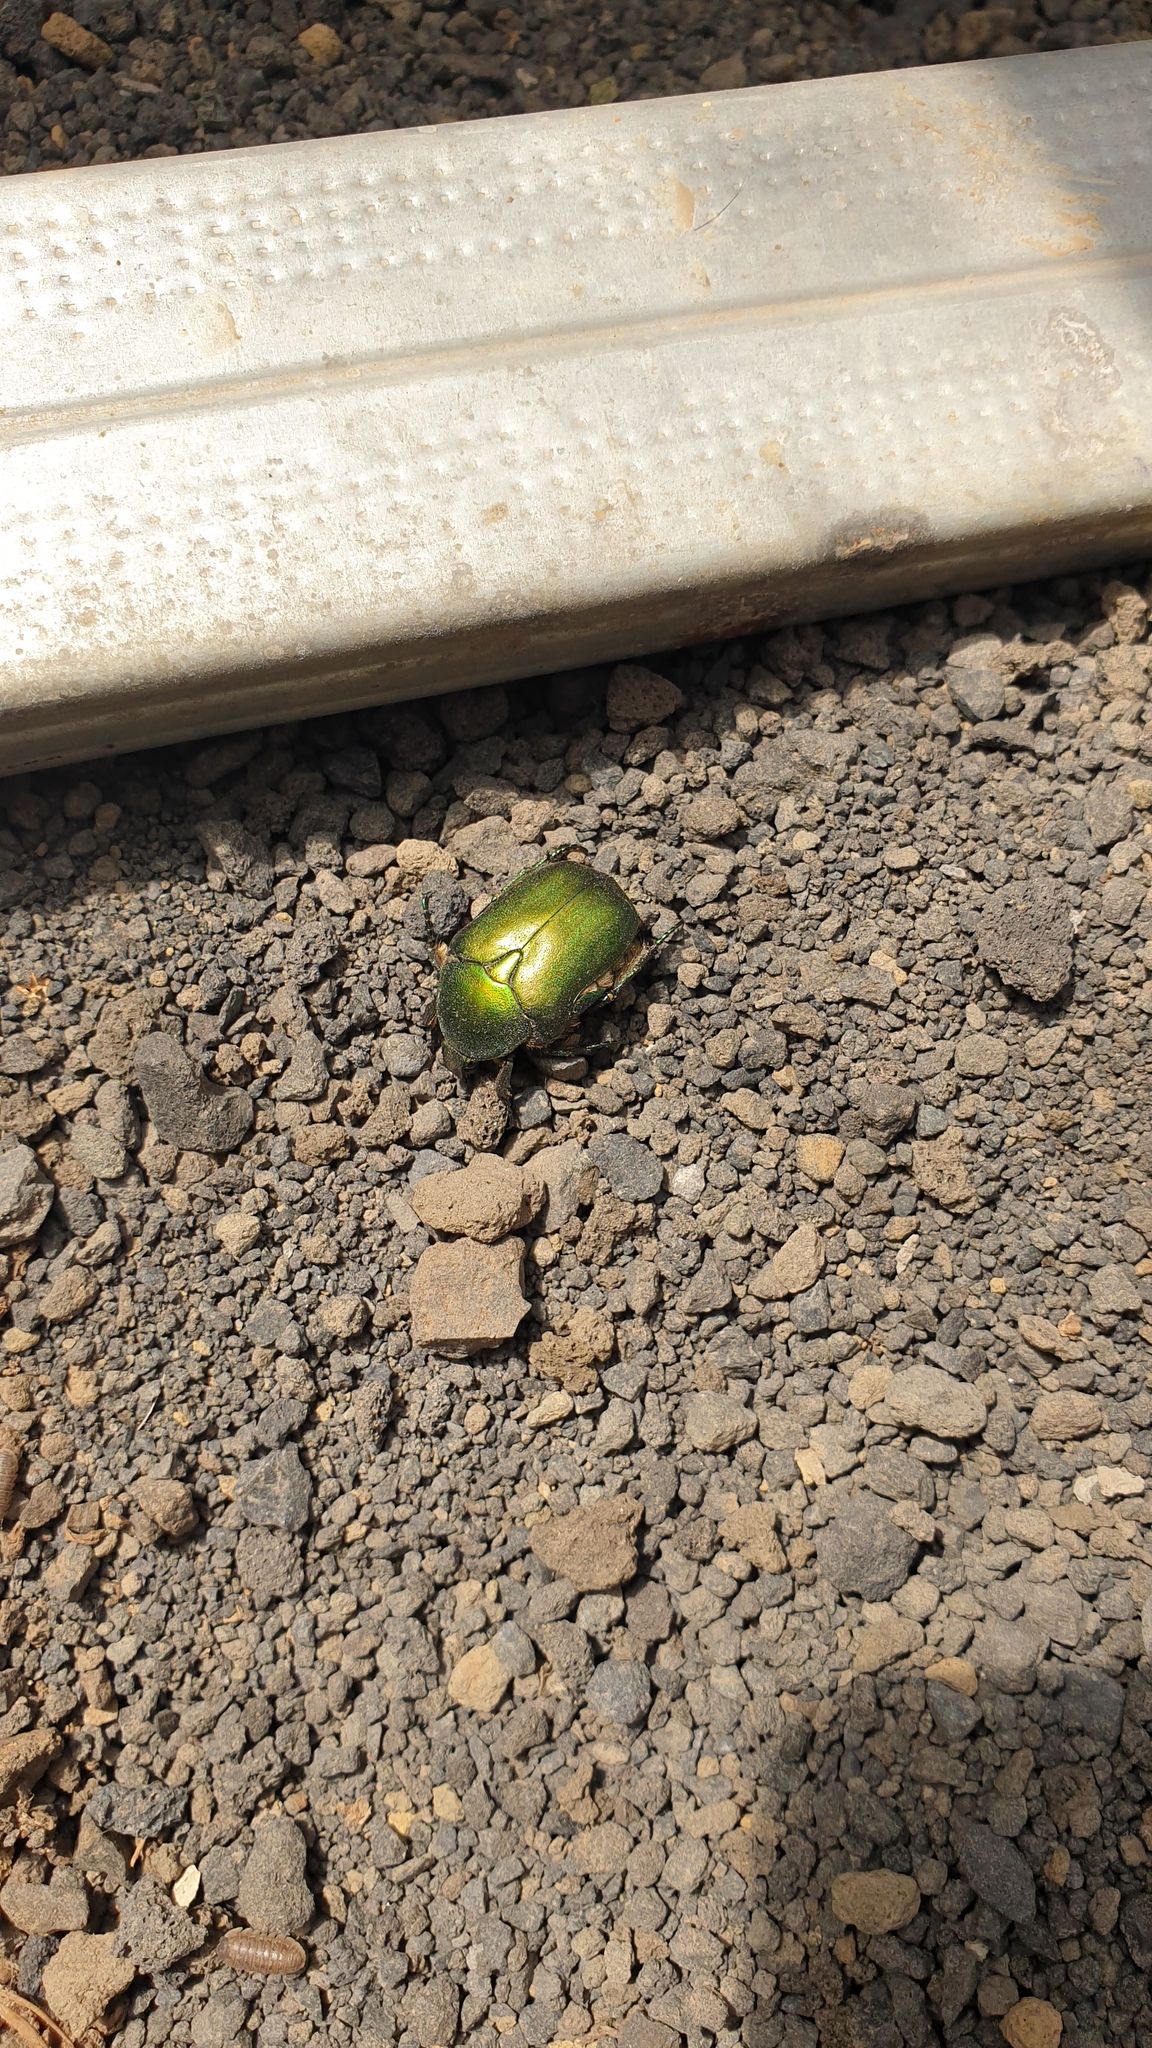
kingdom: Animalia
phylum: Arthropoda
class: Insecta
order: Coleoptera
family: Scarabaeidae
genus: Protaetia
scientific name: Protaetia ungarica
